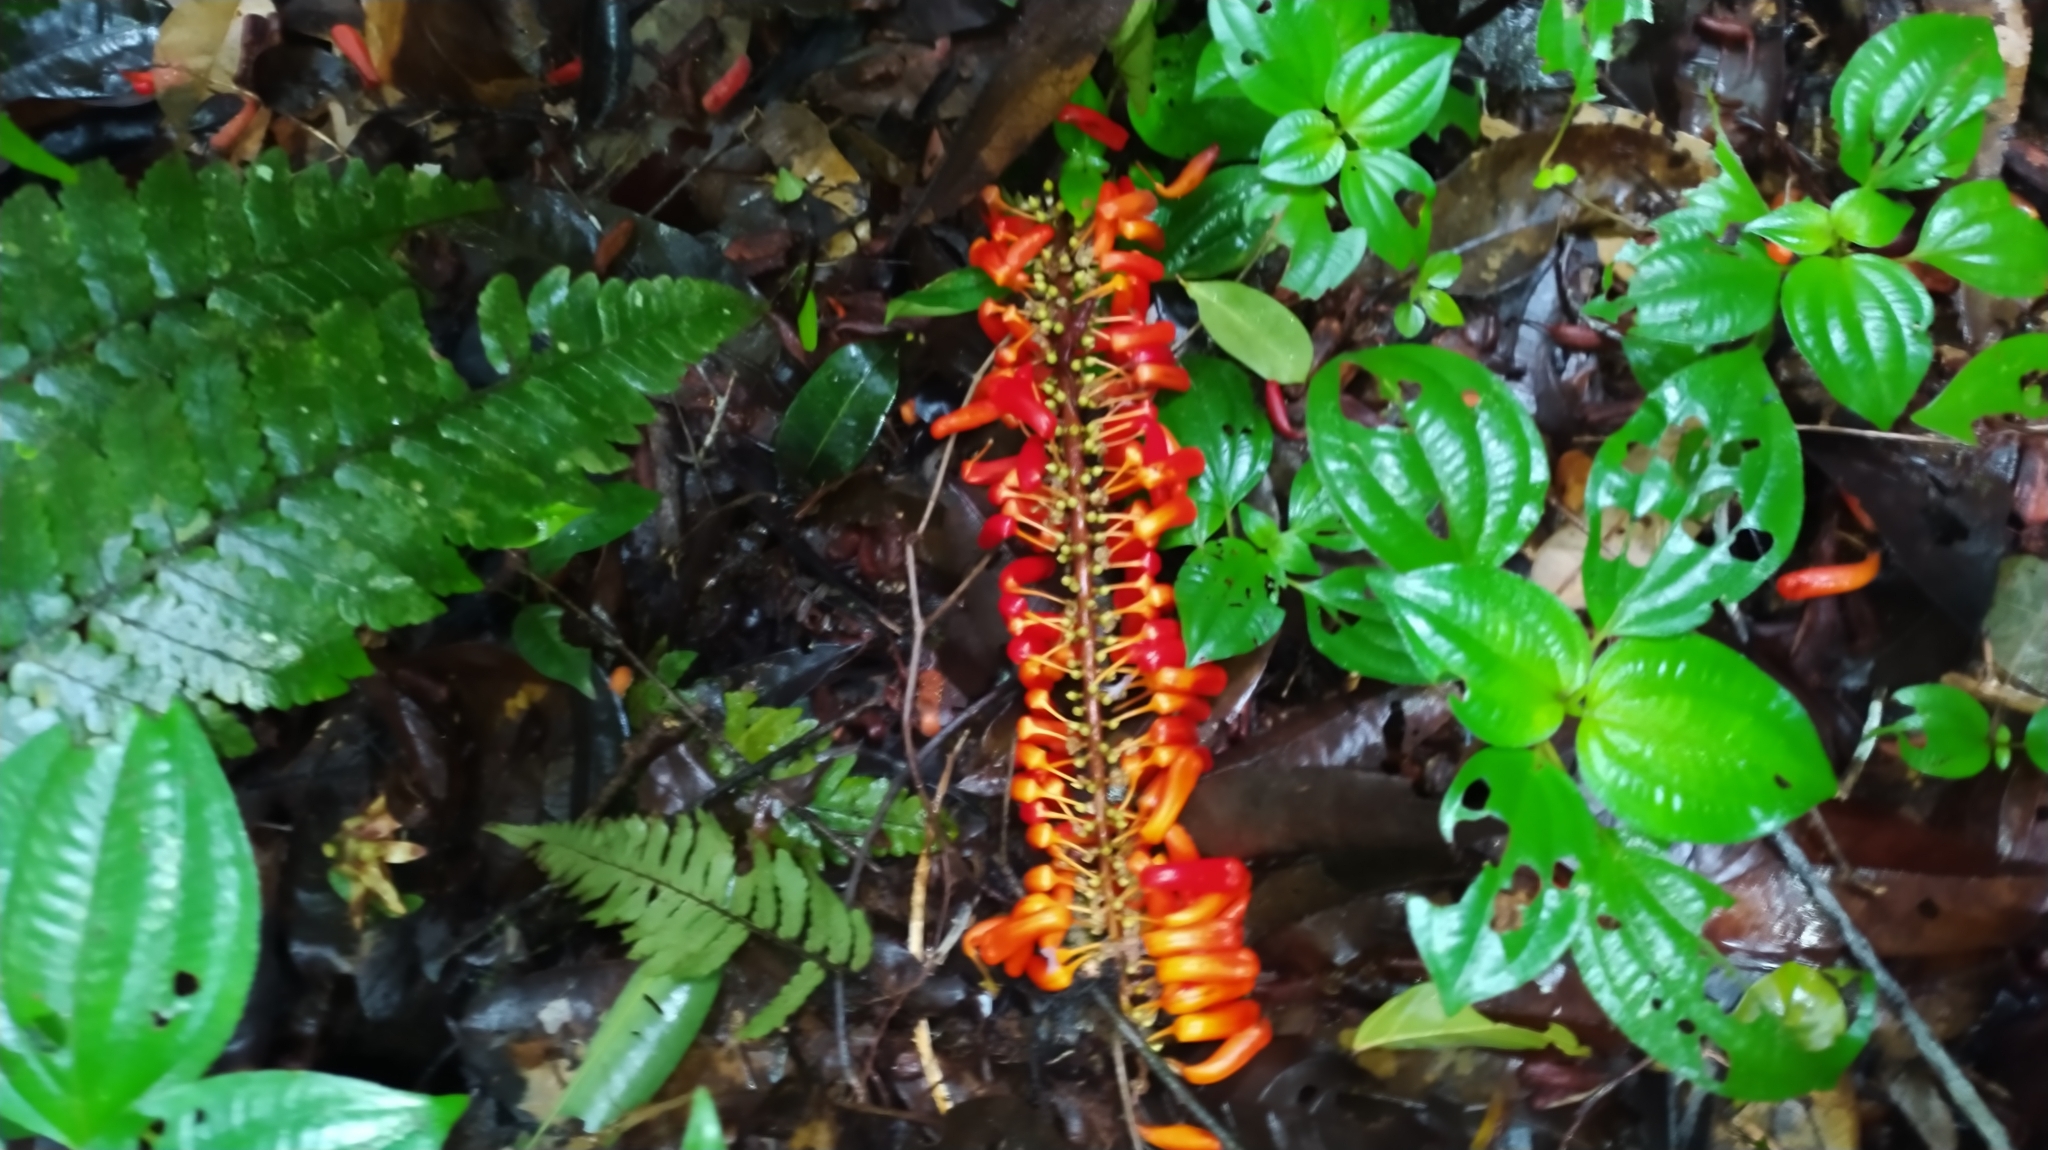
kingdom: Plantae
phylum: Tracheophyta
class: Magnoliopsida
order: Ericales
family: Marcgraviaceae
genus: Norantea
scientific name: Norantea guianensis
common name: Red hot poker vine
